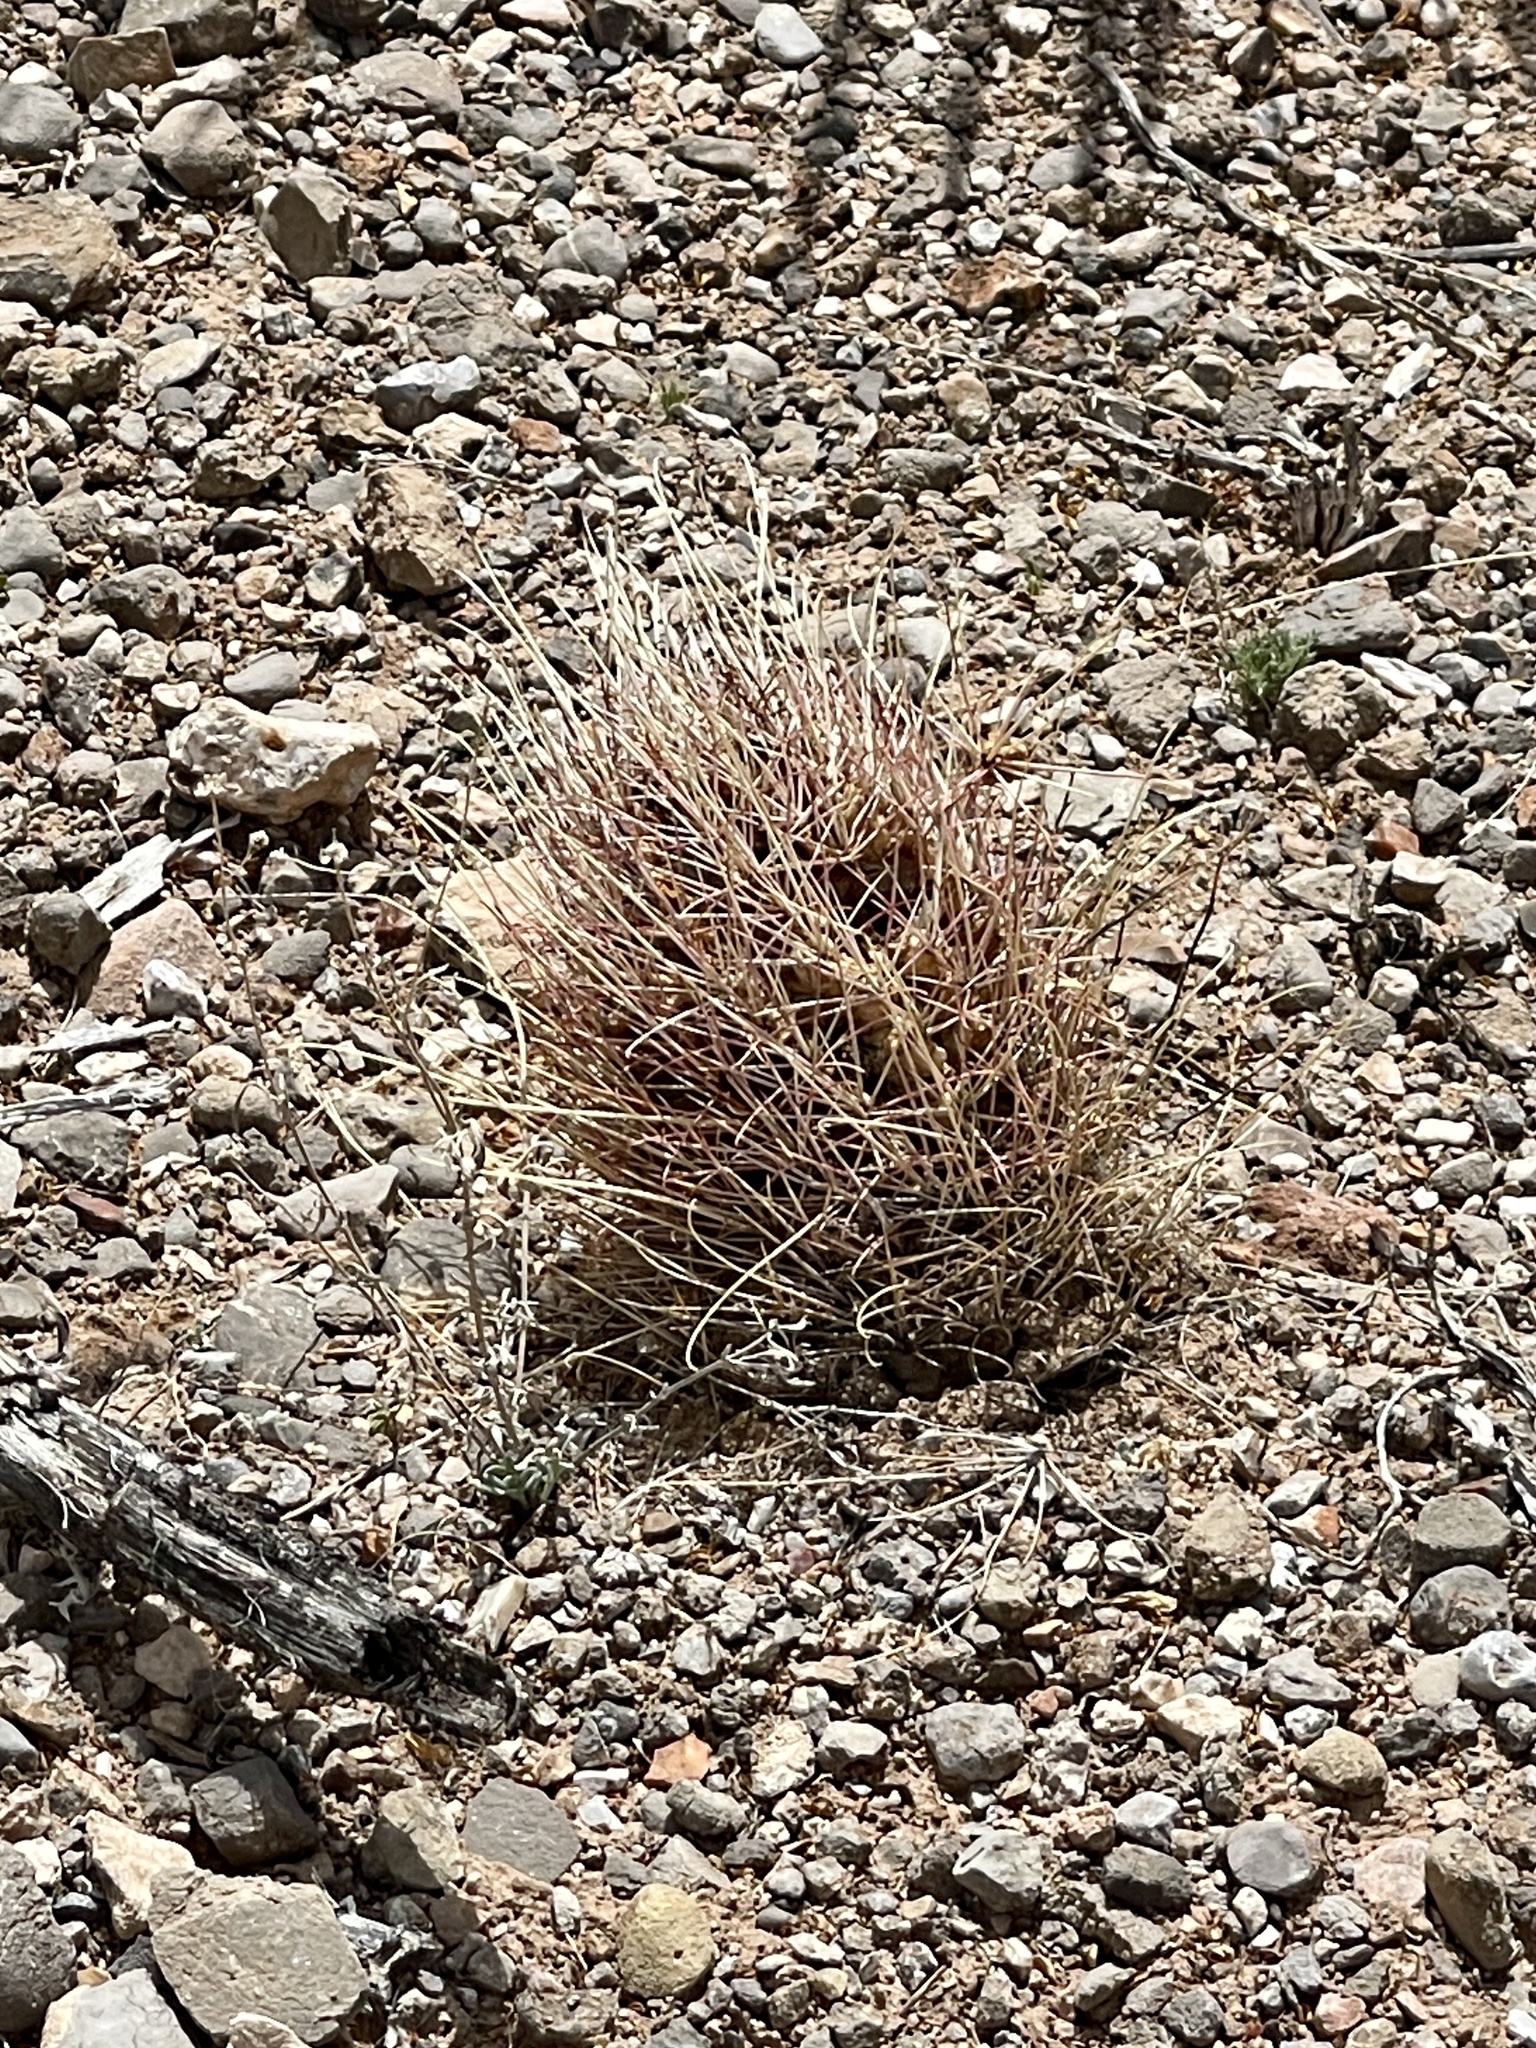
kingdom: Plantae
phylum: Tracheophyta
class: Magnoliopsida
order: Caryophyllales
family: Cactaceae
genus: Ferocactus
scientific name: Ferocactus uncinatus
